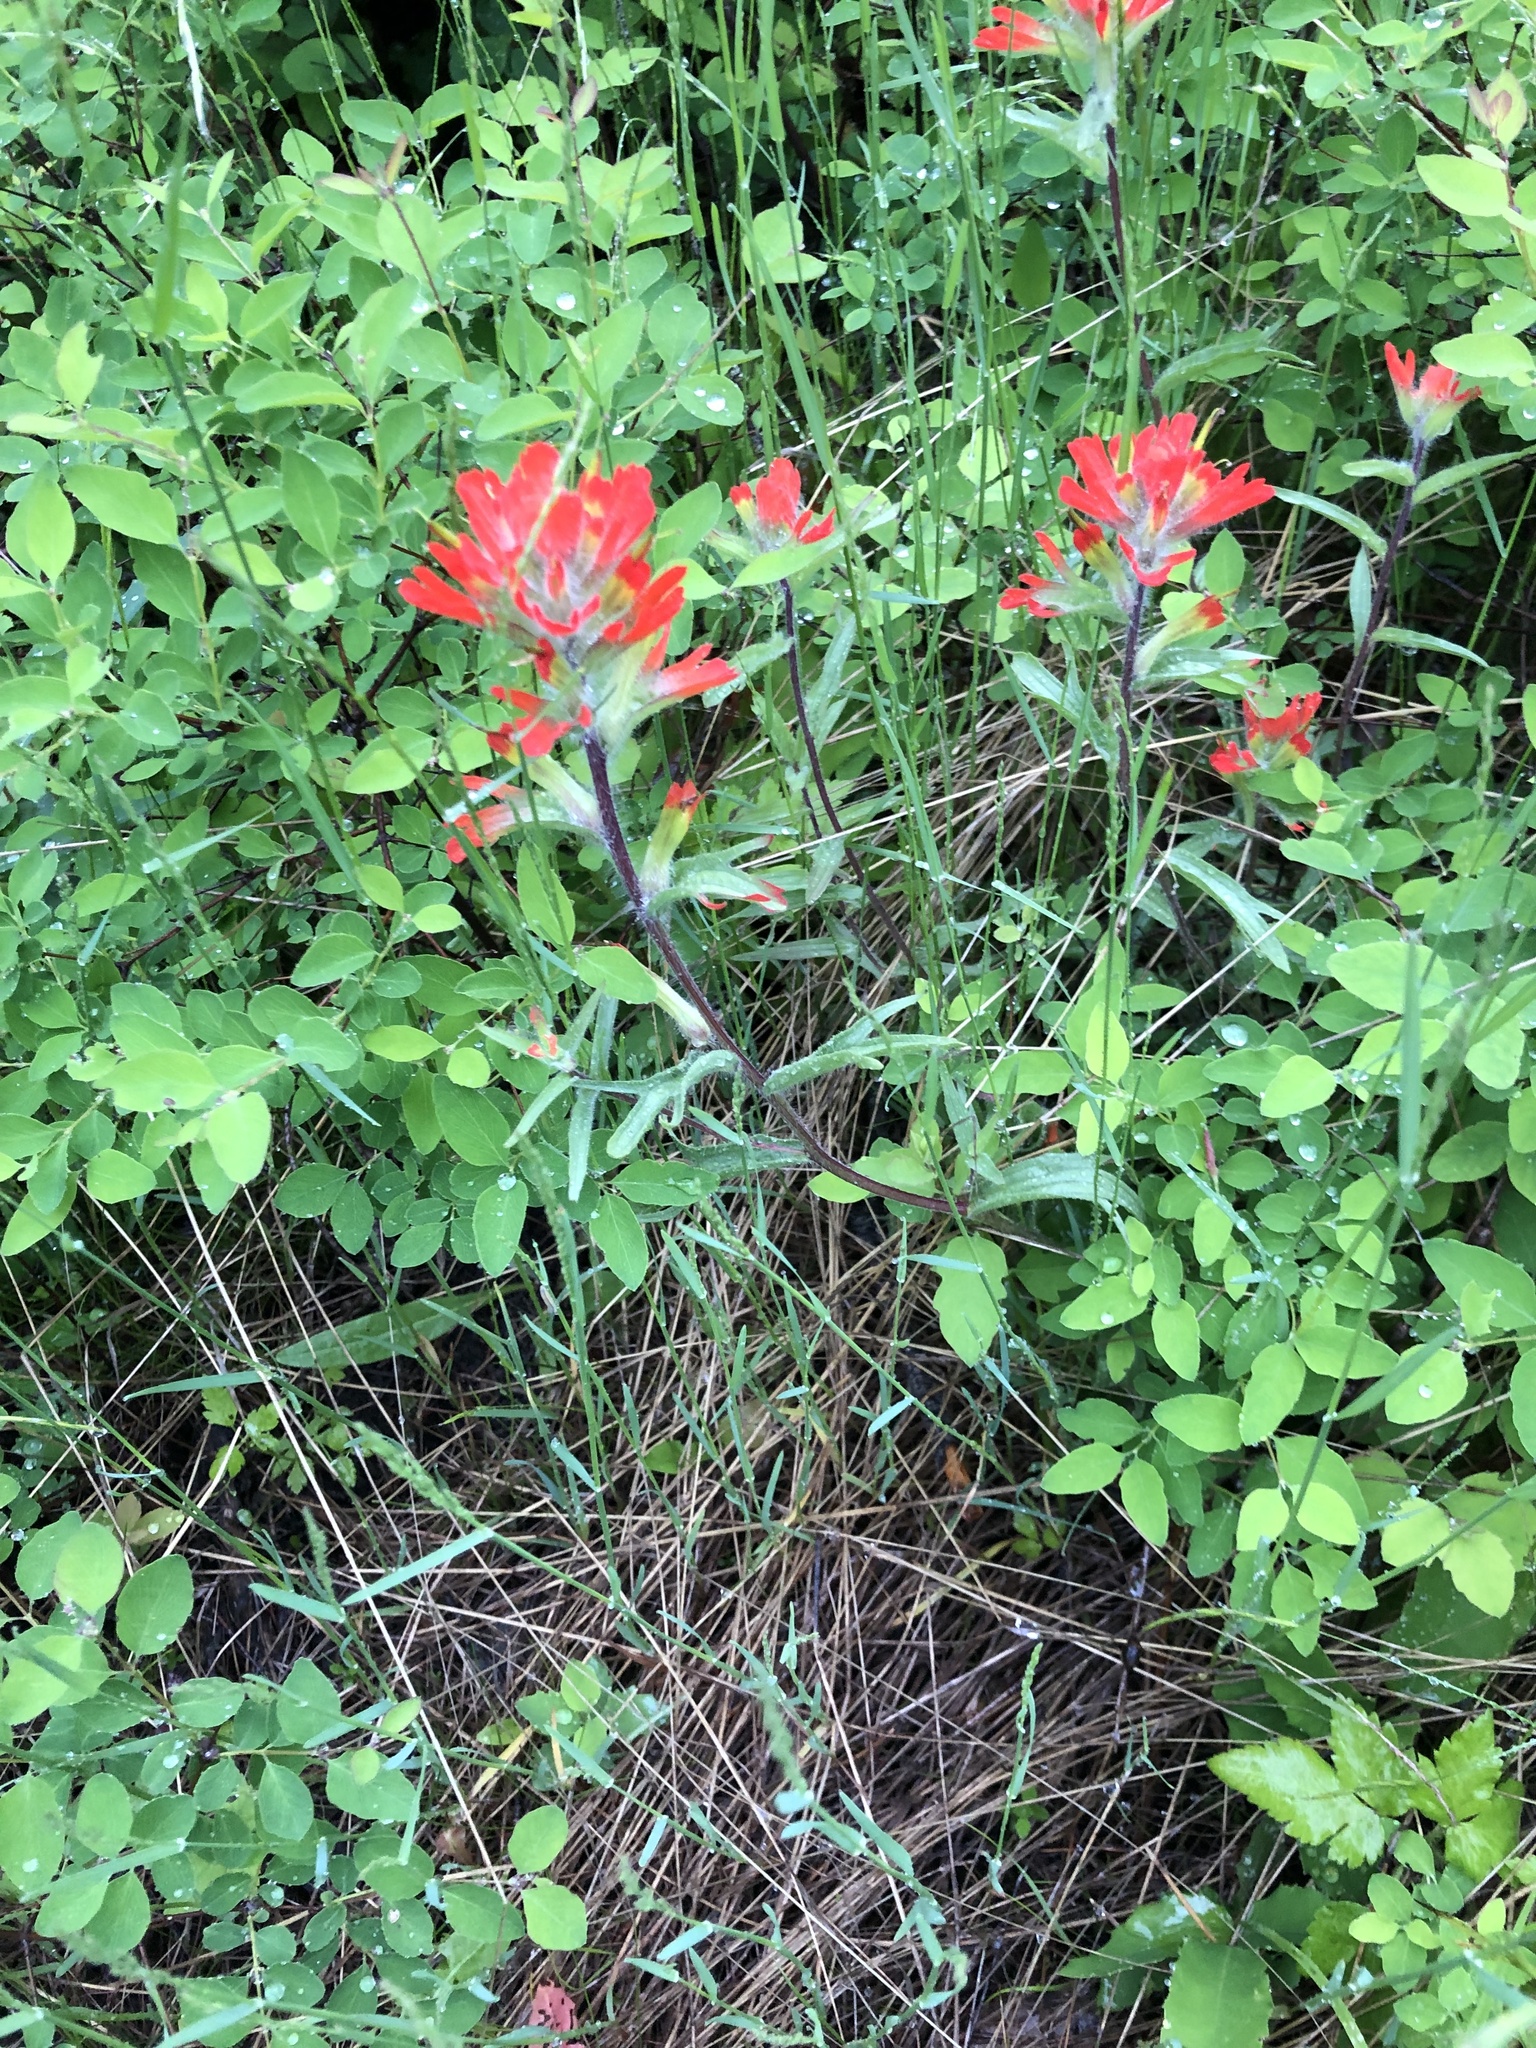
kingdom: Plantae
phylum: Tracheophyta
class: Magnoliopsida
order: Lamiales
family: Orobanchaceae
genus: Castilleja
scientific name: Castilleja hispida
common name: Bristly paintbrush
